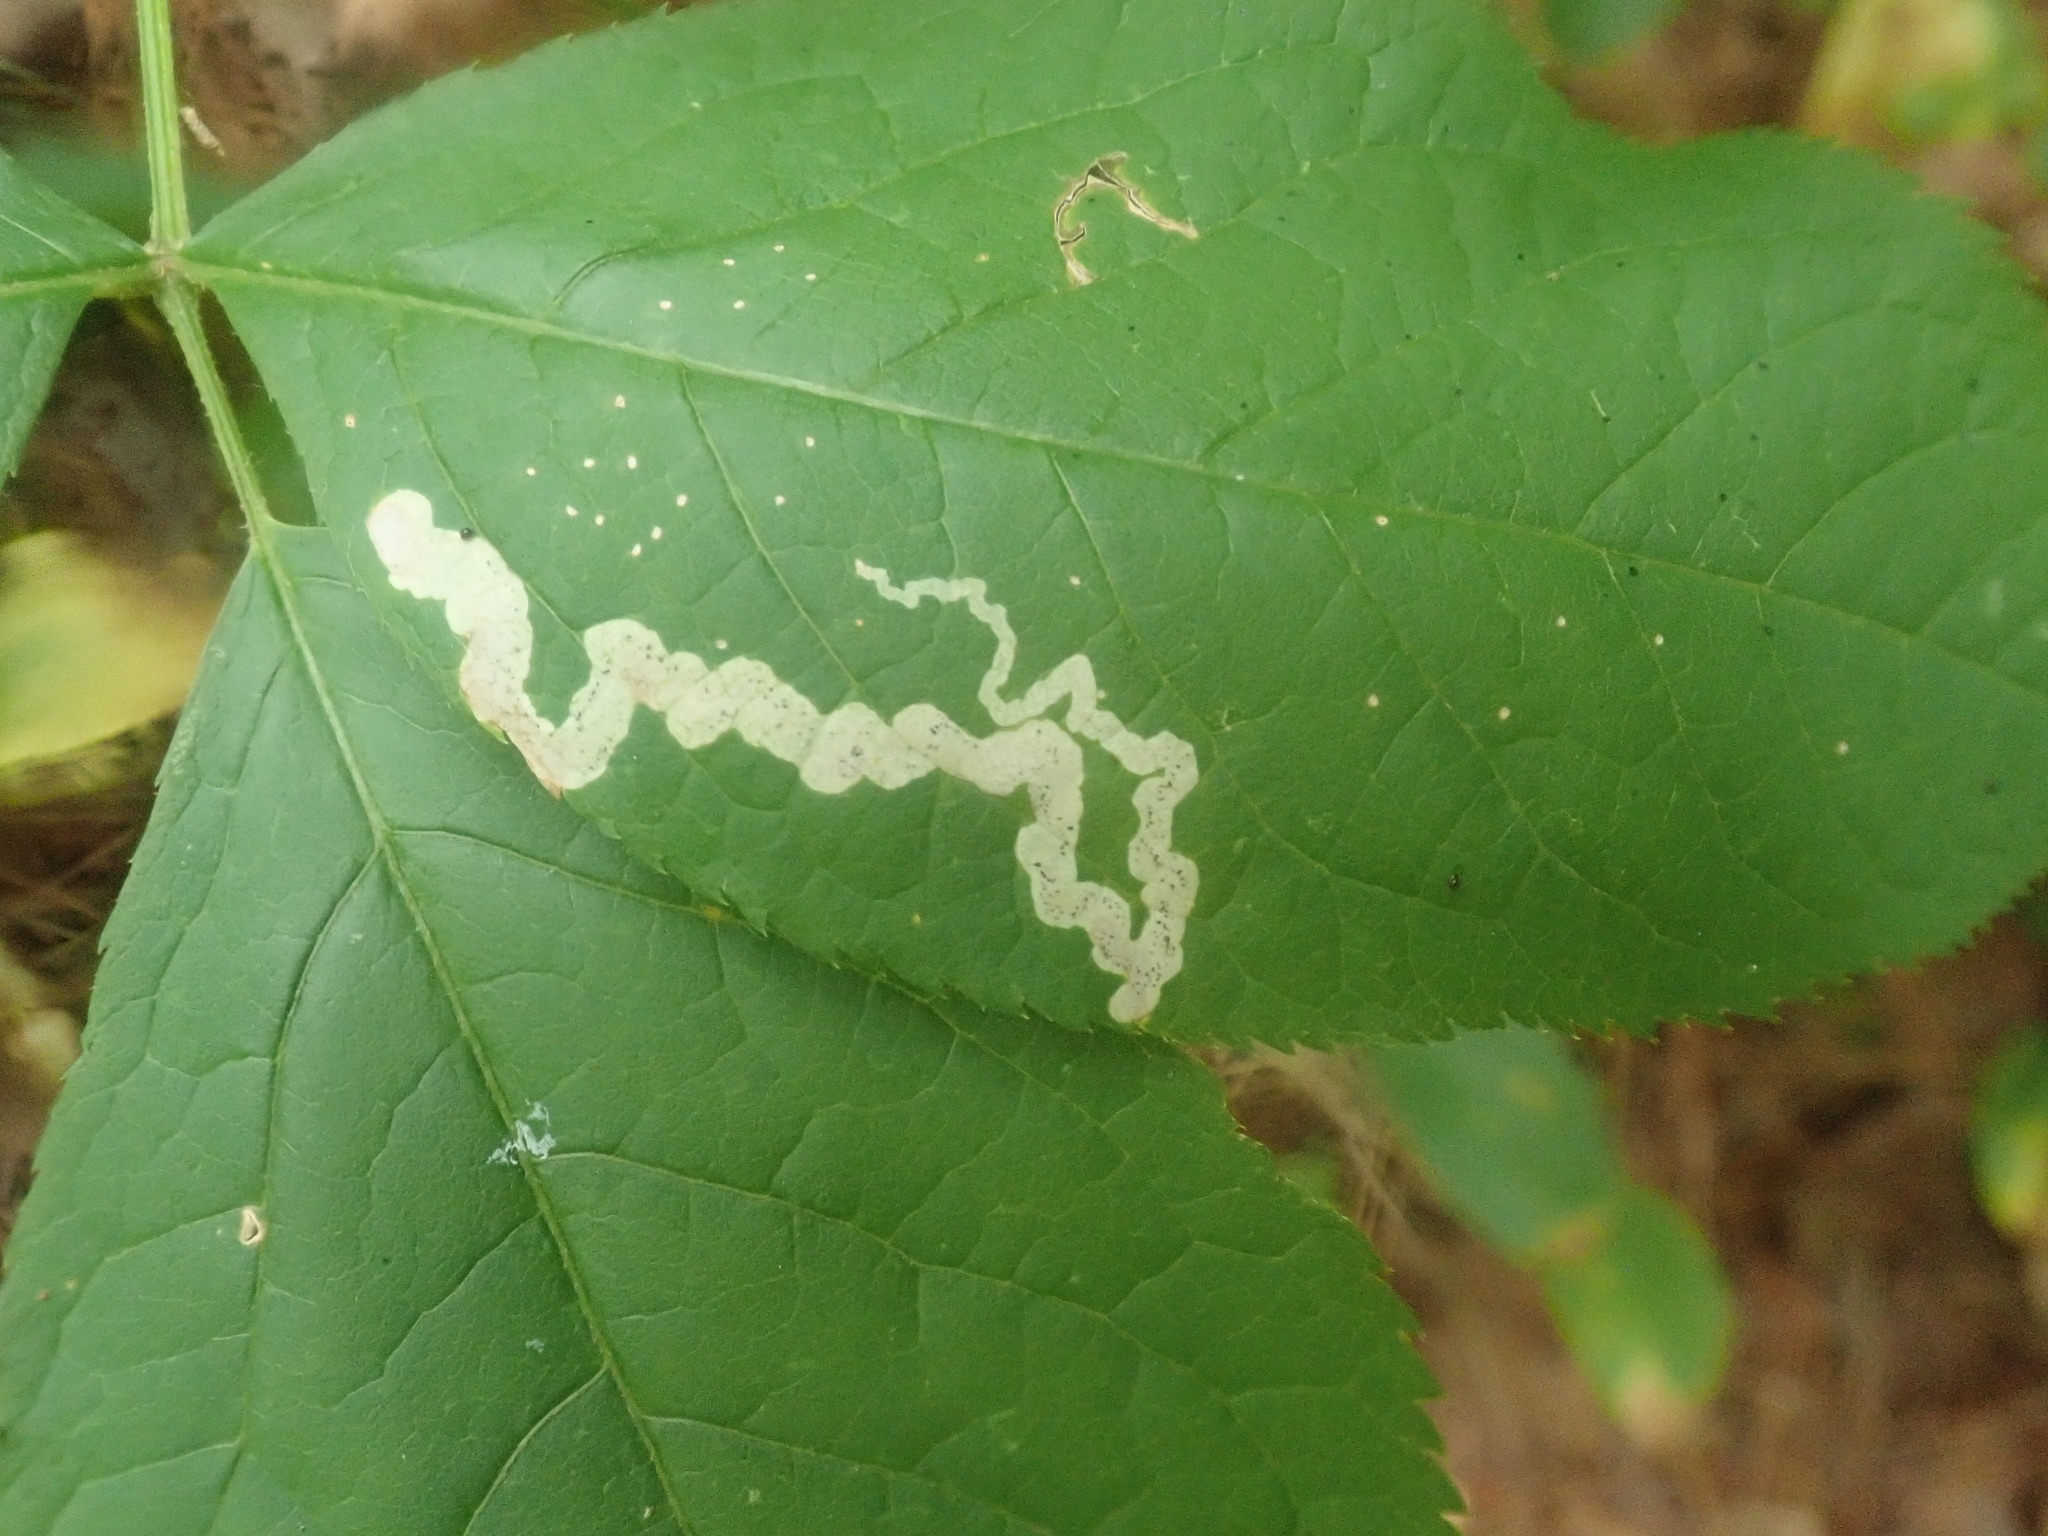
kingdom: Animalia
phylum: Arthropoda
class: Insecta
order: Diptera
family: Agromyzidae
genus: Phytomyza
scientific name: Phytomyza aralivora
